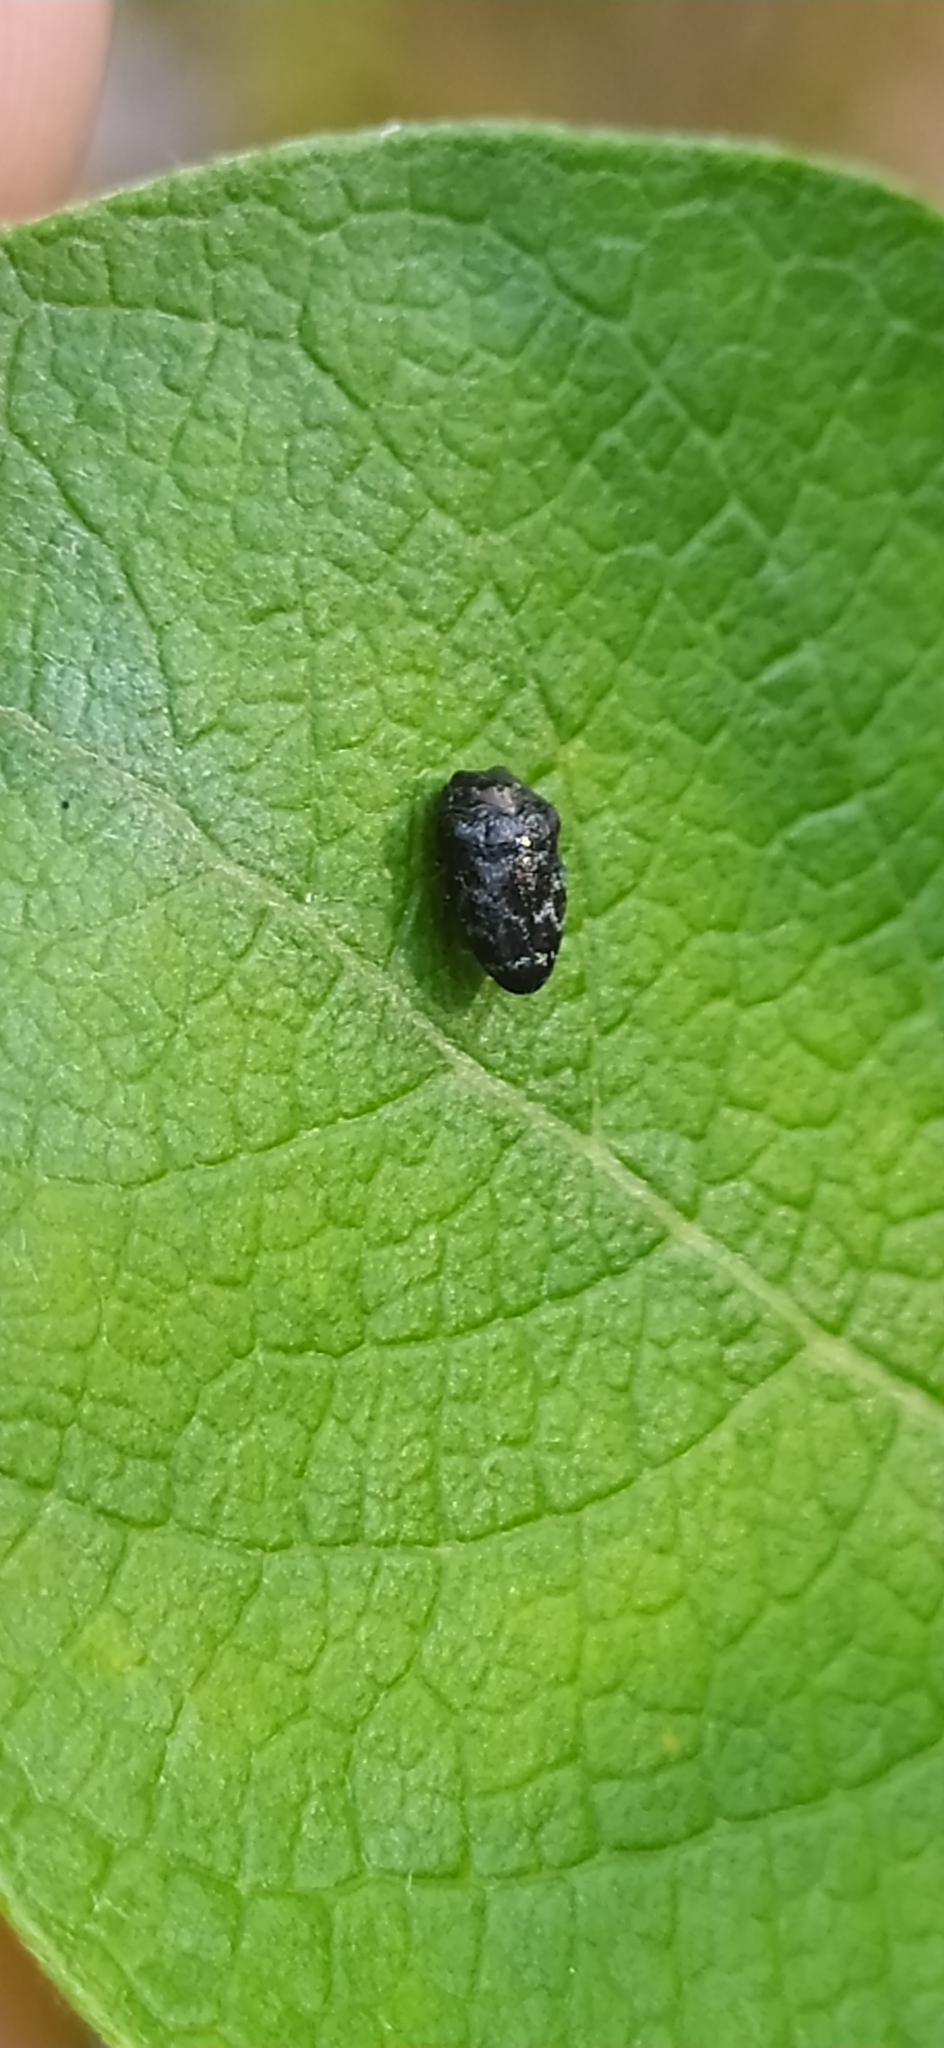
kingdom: Animalia
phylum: Arthropoda
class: Insecta
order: Coleoptera
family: Buprestidae
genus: Trachys
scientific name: Trachys minutus
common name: Metallic wood-boring beetle
